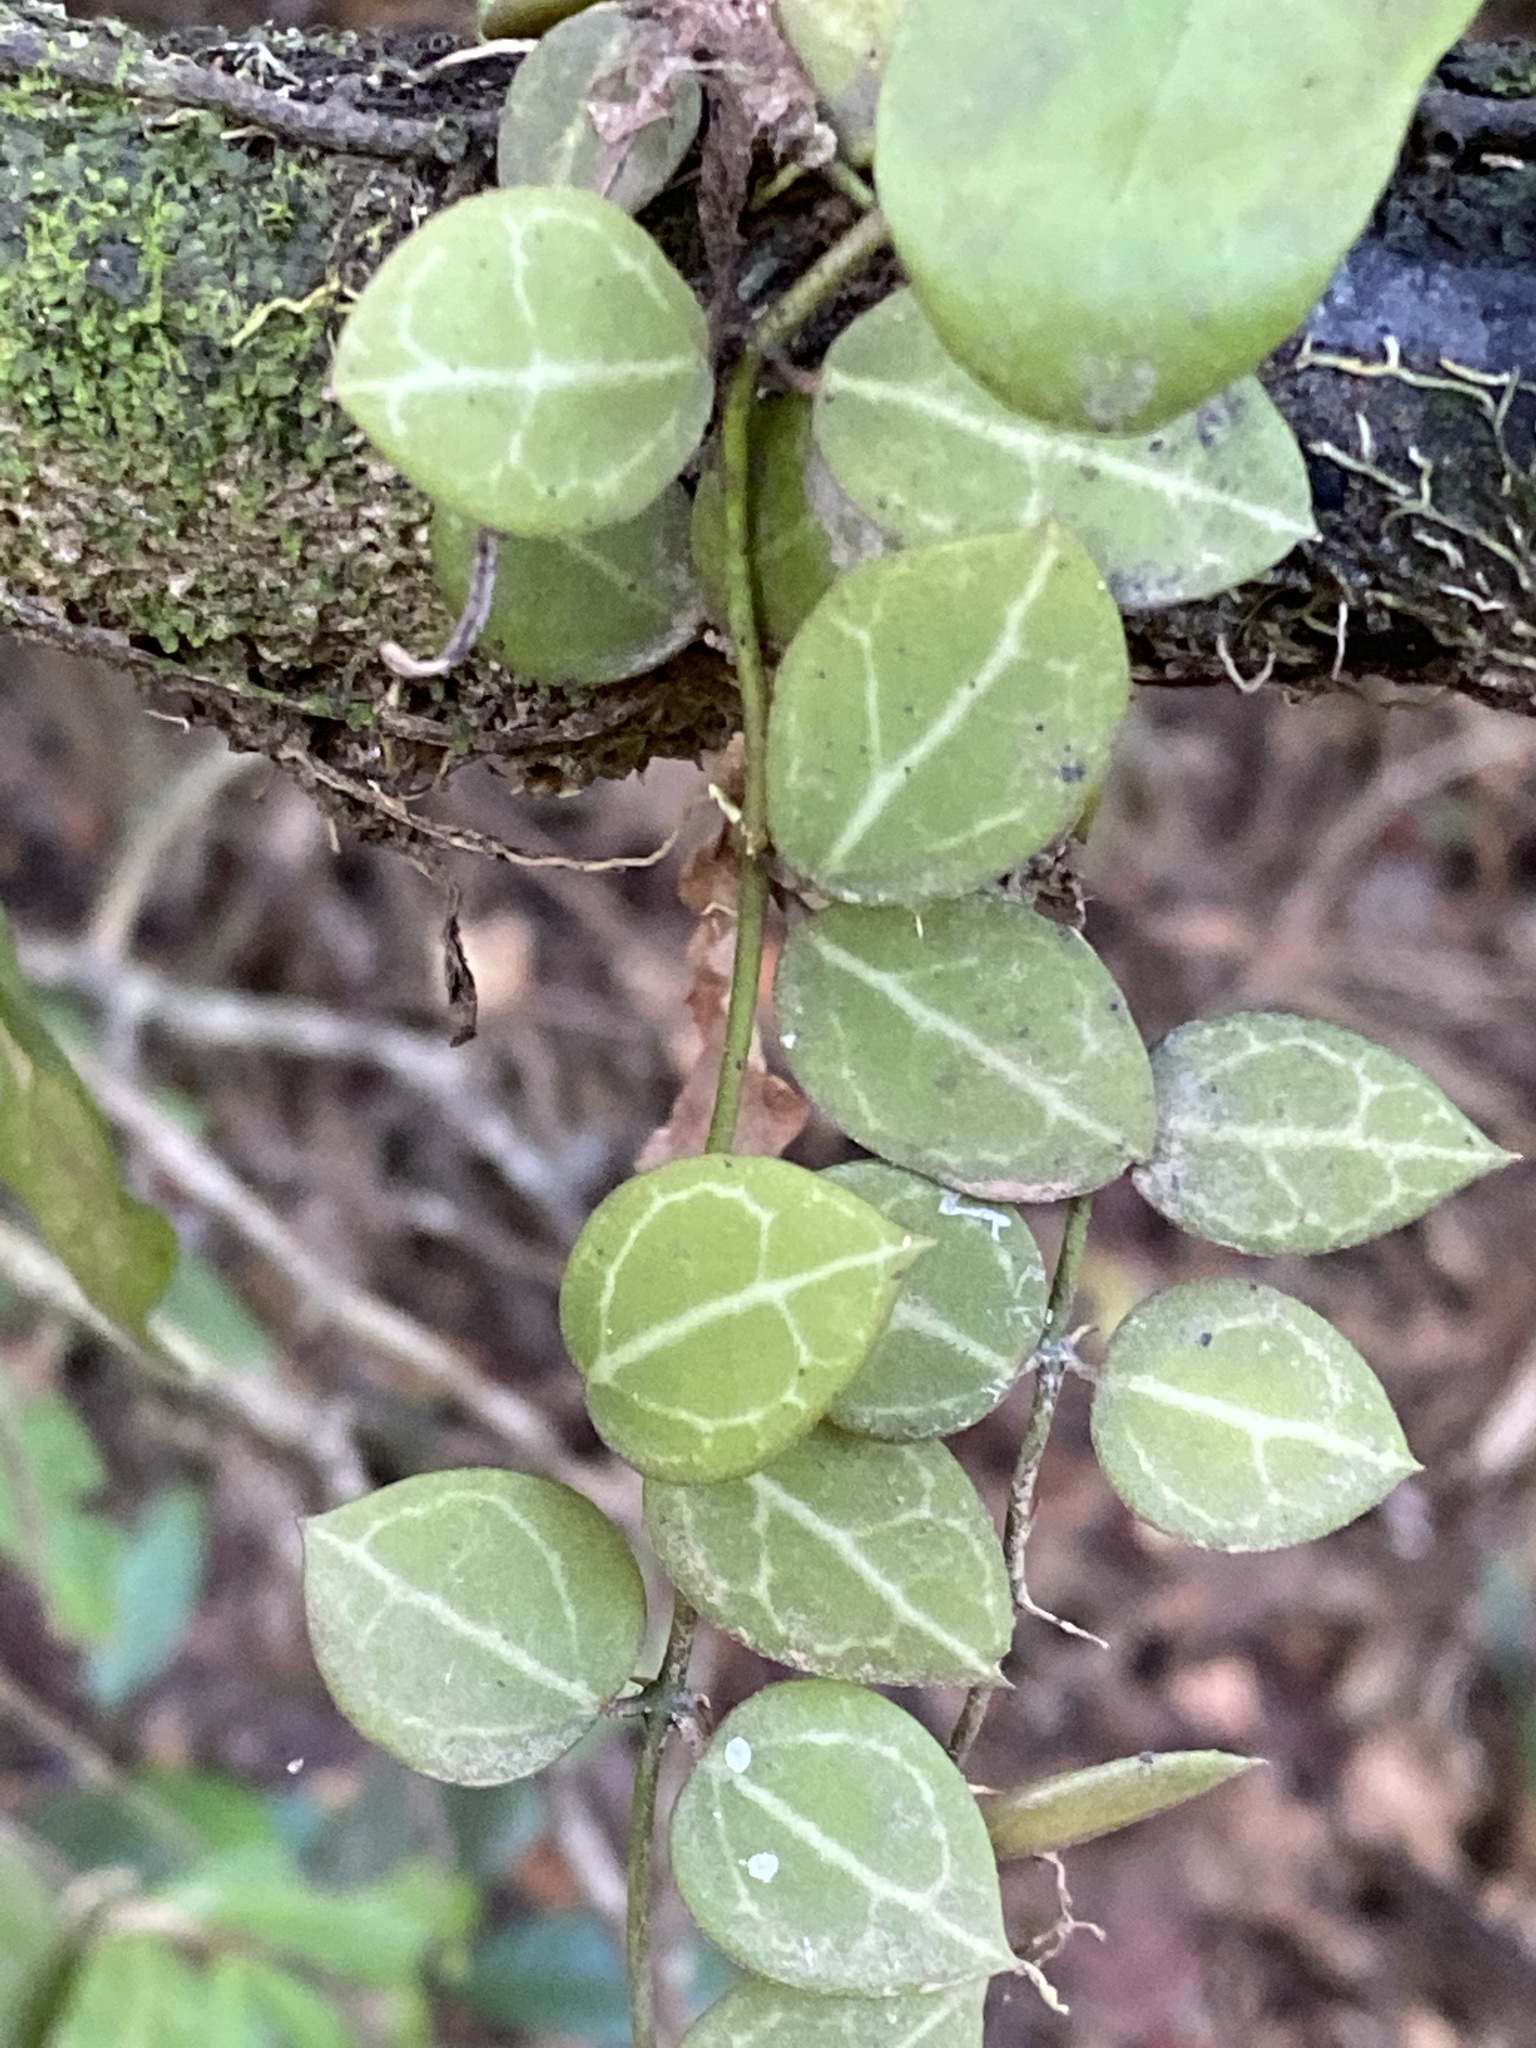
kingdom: Plantae
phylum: Tracheophyta
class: Magnoliopsida
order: Gentianales
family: Apocynaceae
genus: Dischidia
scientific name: Dischidia ovata
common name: Watermelon dischidia
